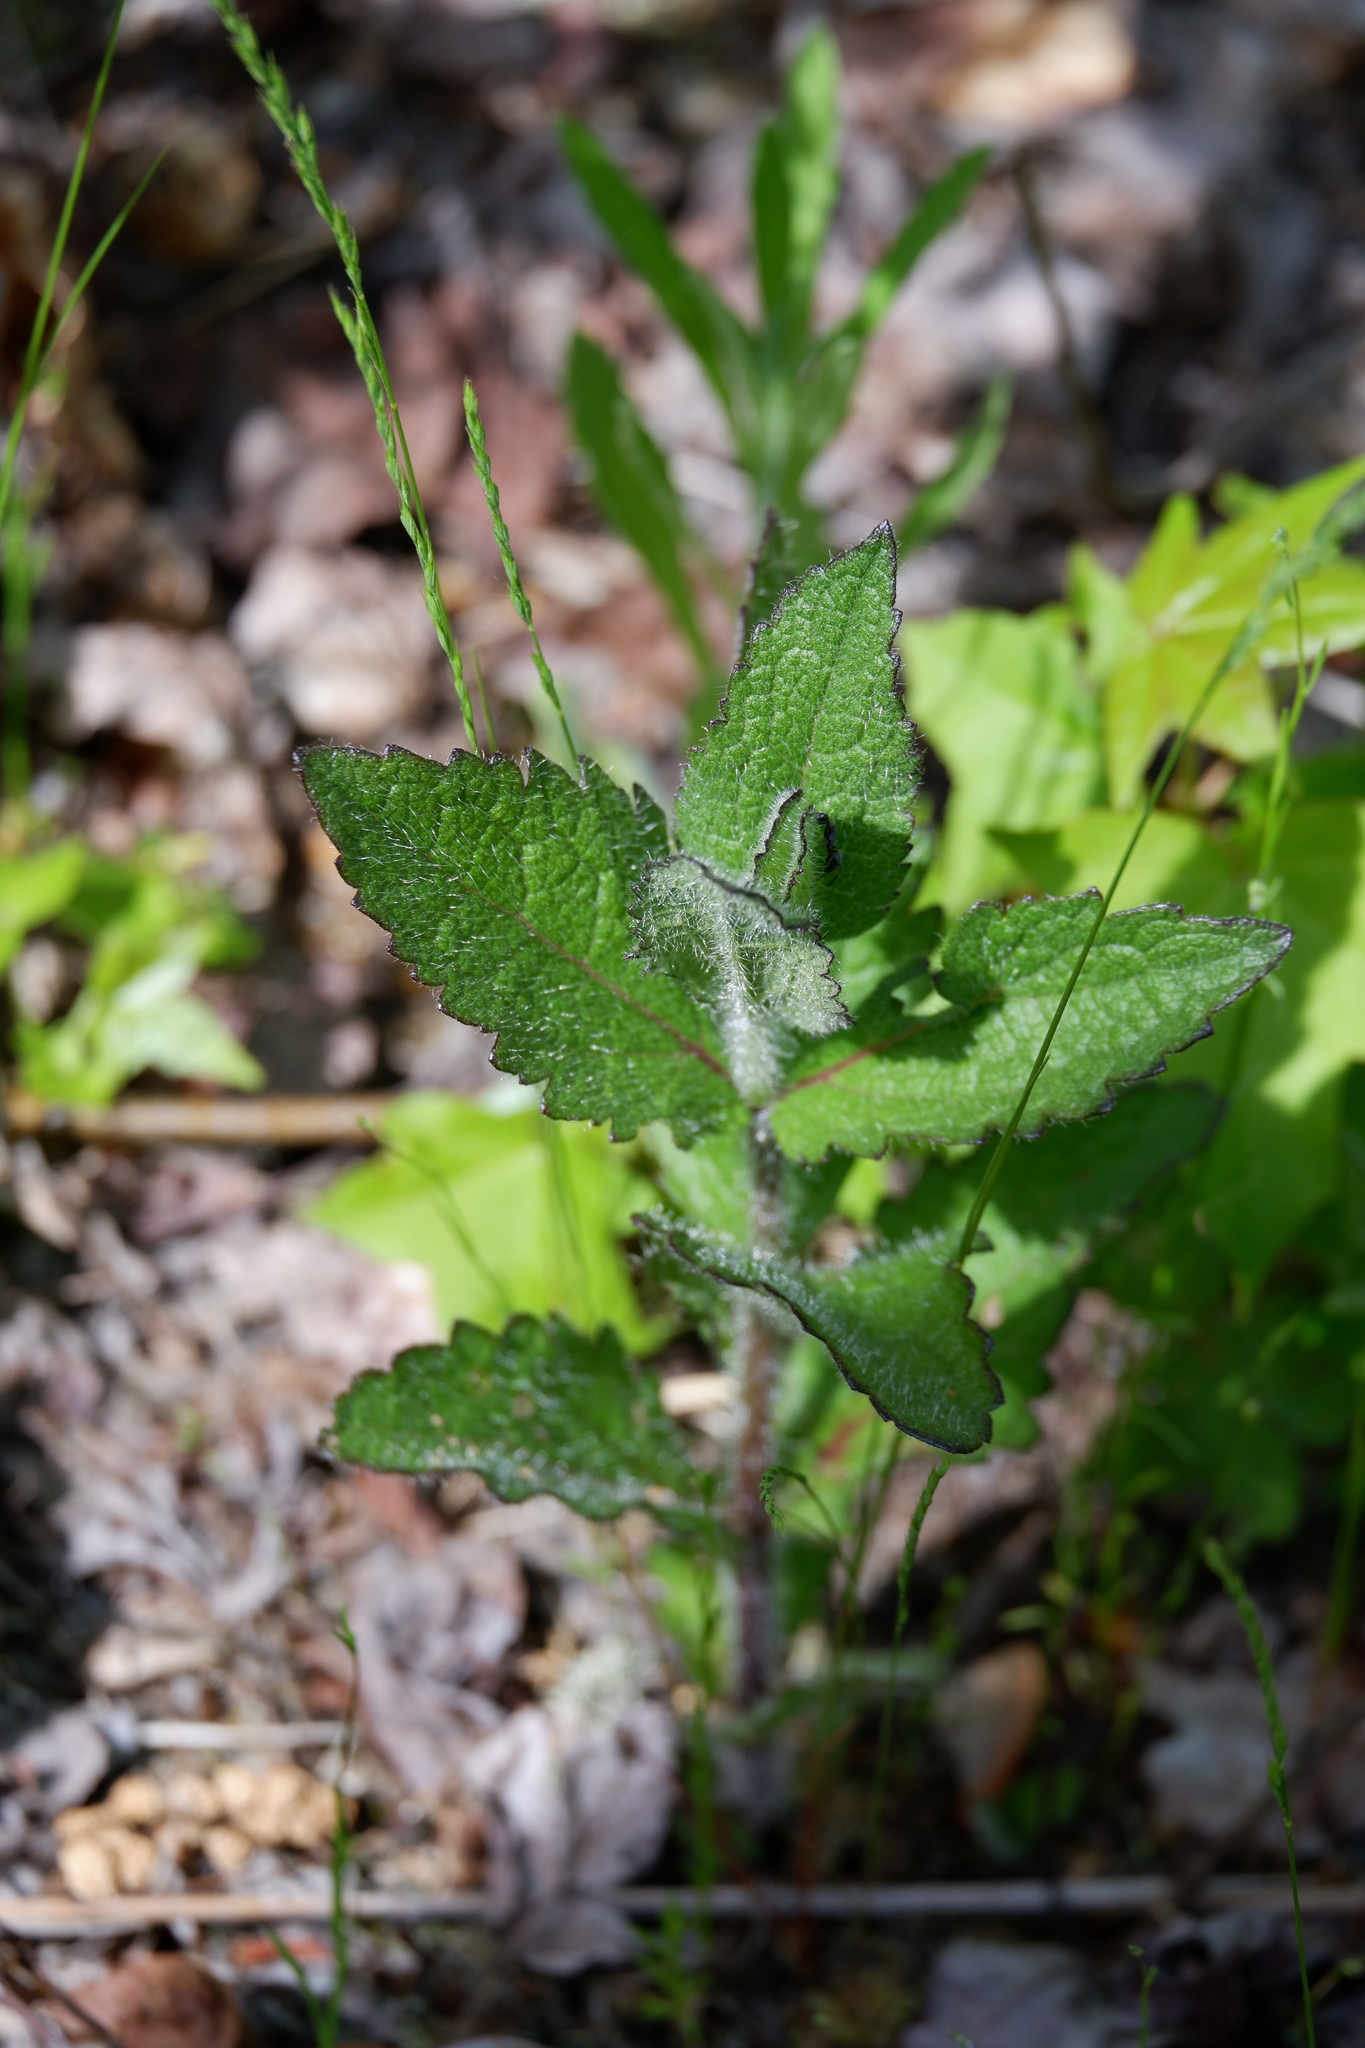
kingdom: Plantae
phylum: Tracheophyta
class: Magnoliopsida
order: Asterales
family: Asteraceae
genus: Eupatorium
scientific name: Eupatorium pilosum
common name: Rough boneset
